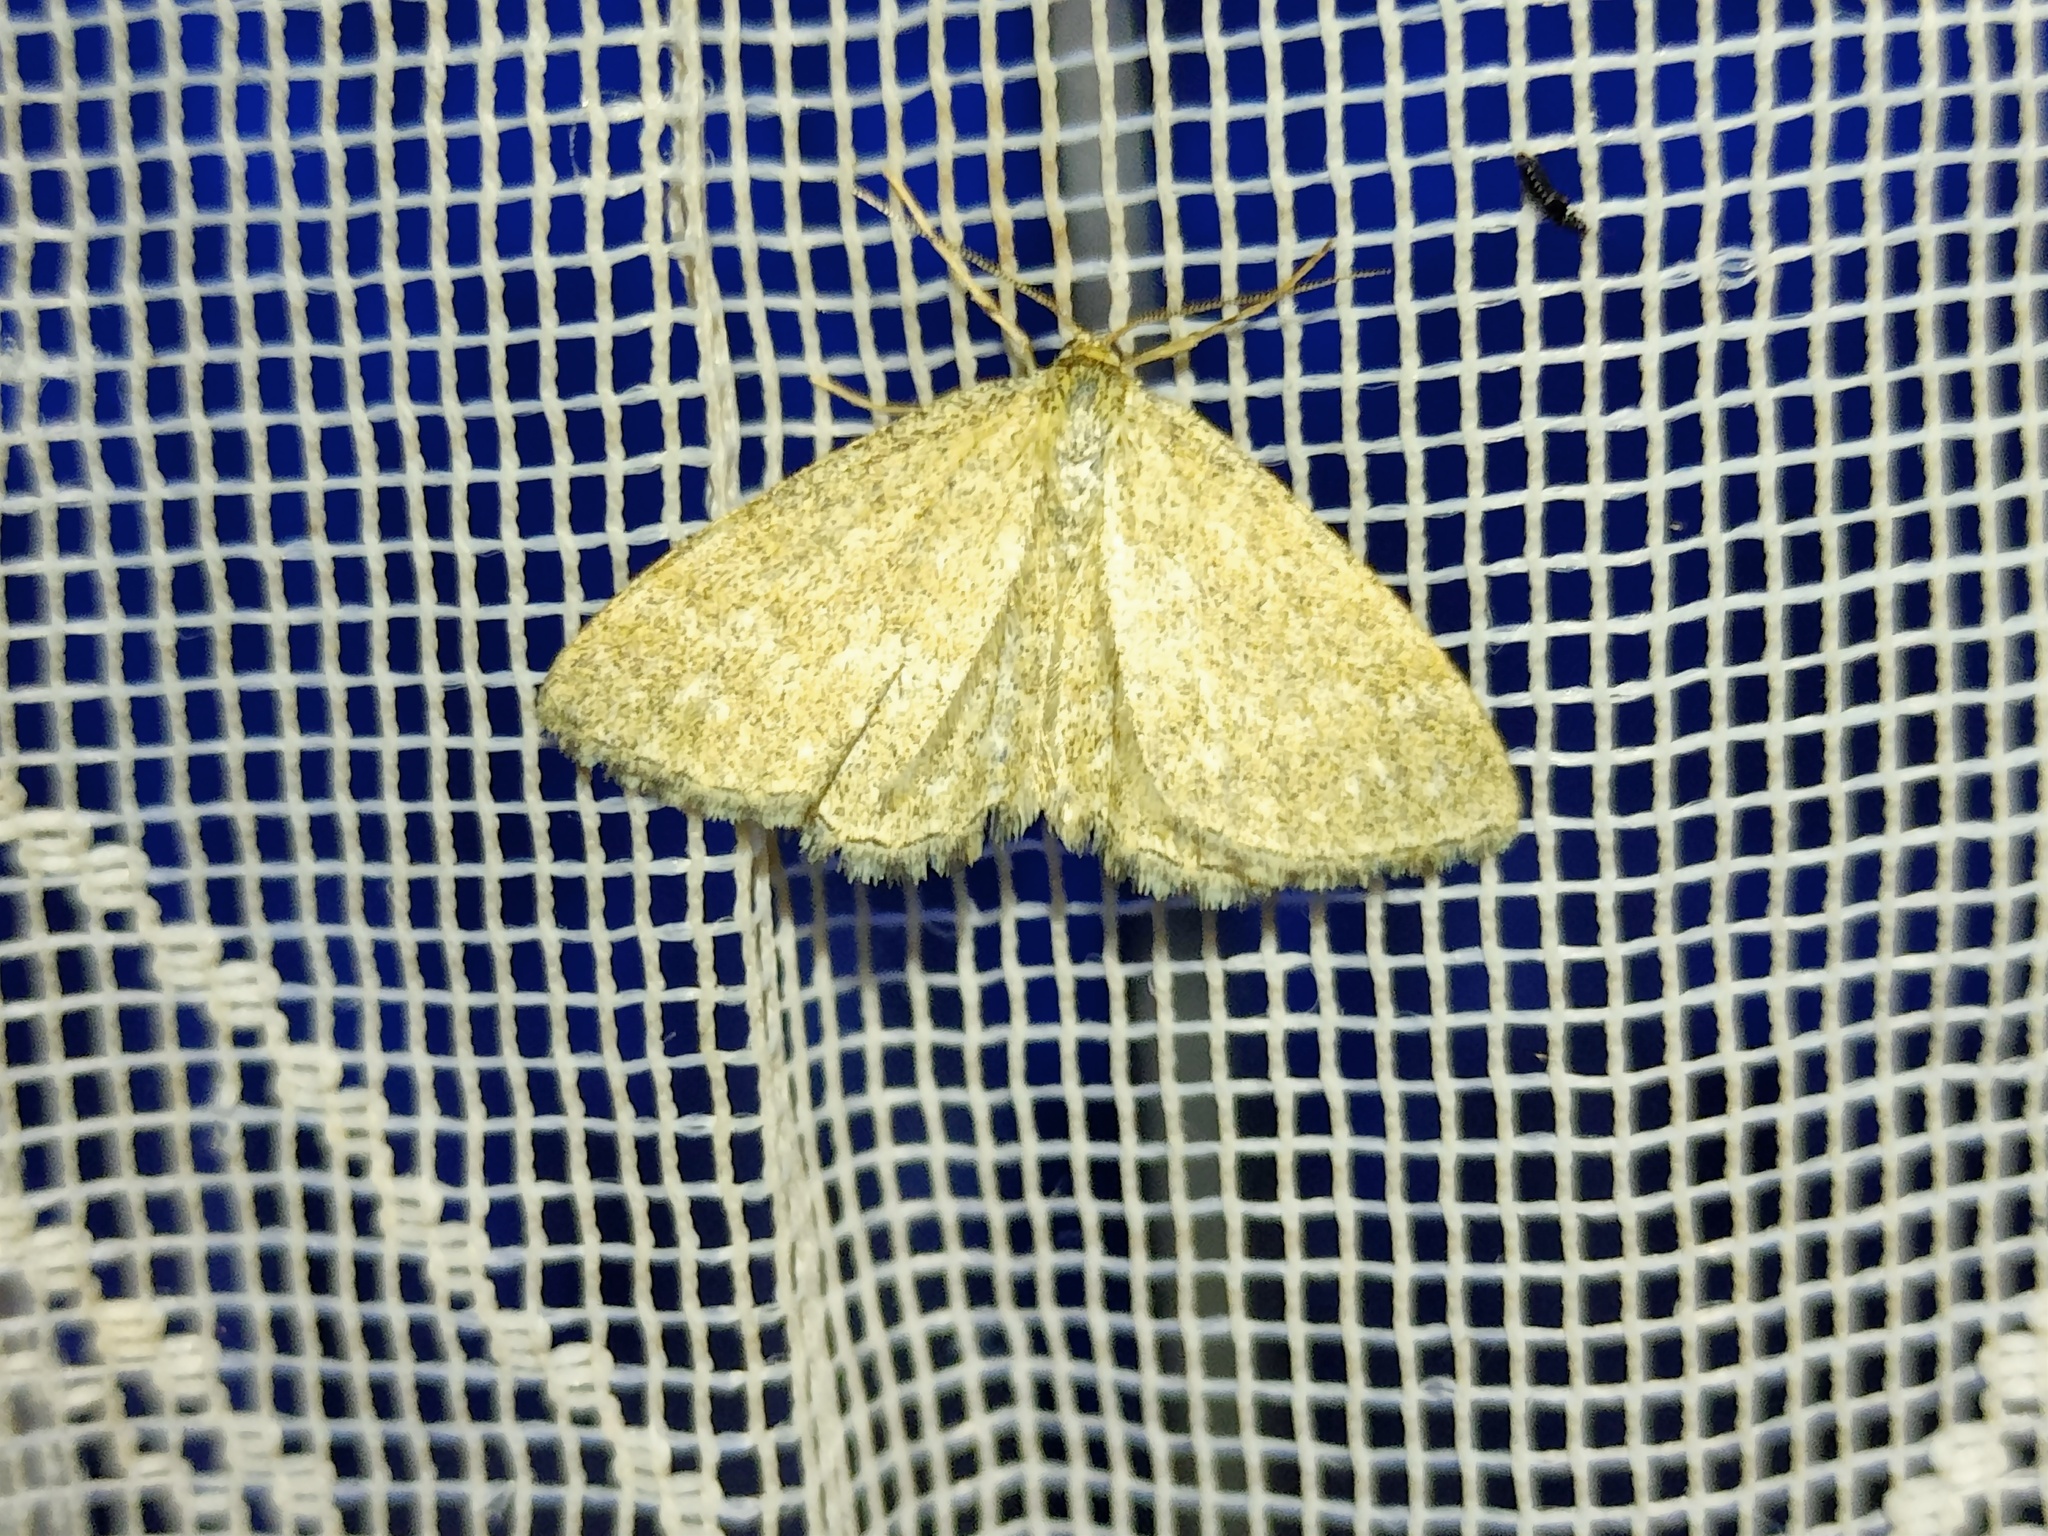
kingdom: Animalia
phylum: Arthropoda
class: Insecta
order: Lepidoptera
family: Geometridae
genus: Scopula
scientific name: Scopula immorata
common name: Lewes wave
